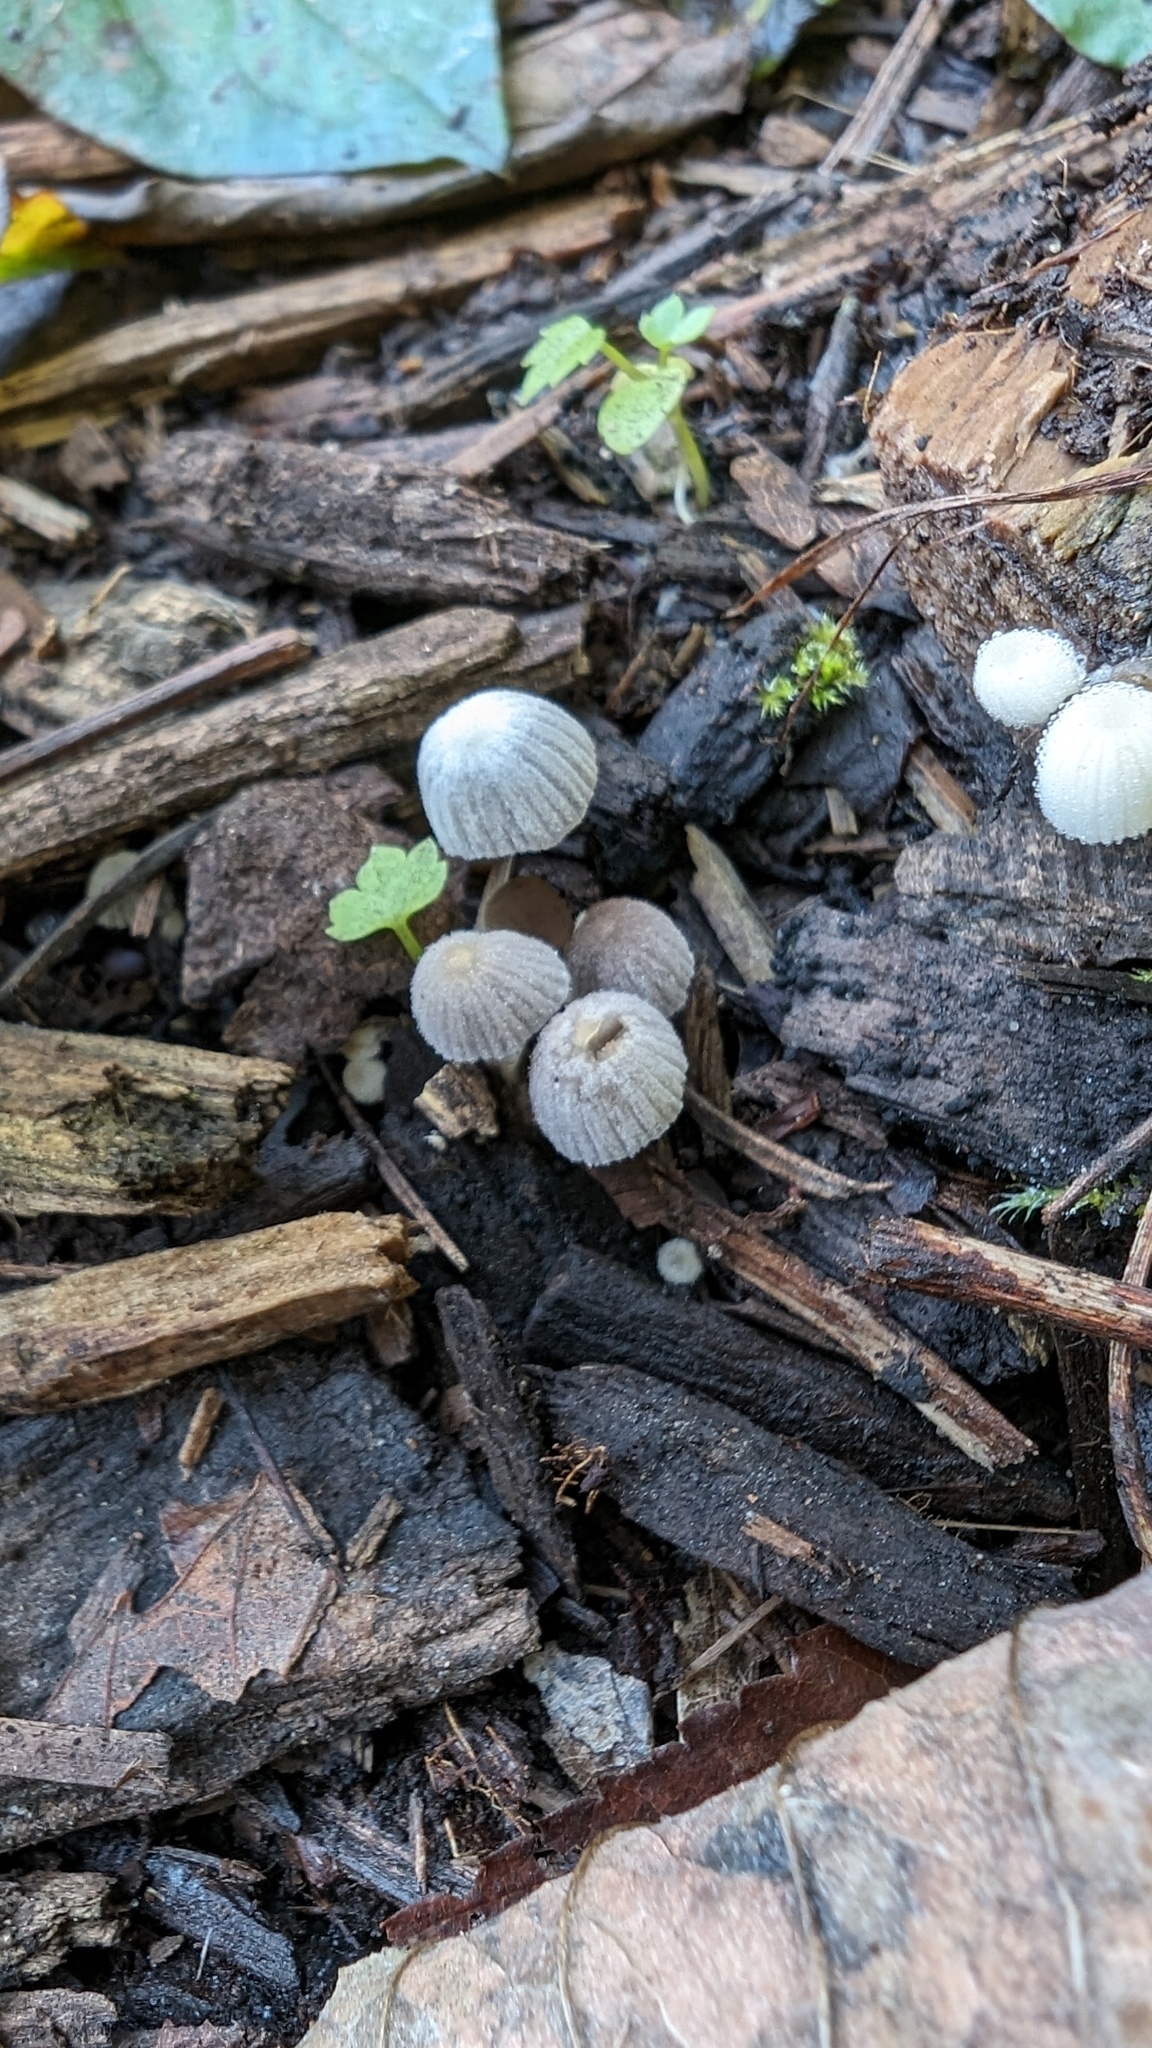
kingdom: Fungi
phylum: Basidiomycota
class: Agaricomycetes
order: Agaricales
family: Psathyrellaceae
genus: Coprinellus
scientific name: Coprinellus disseminatus
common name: Fairies' bonnets
